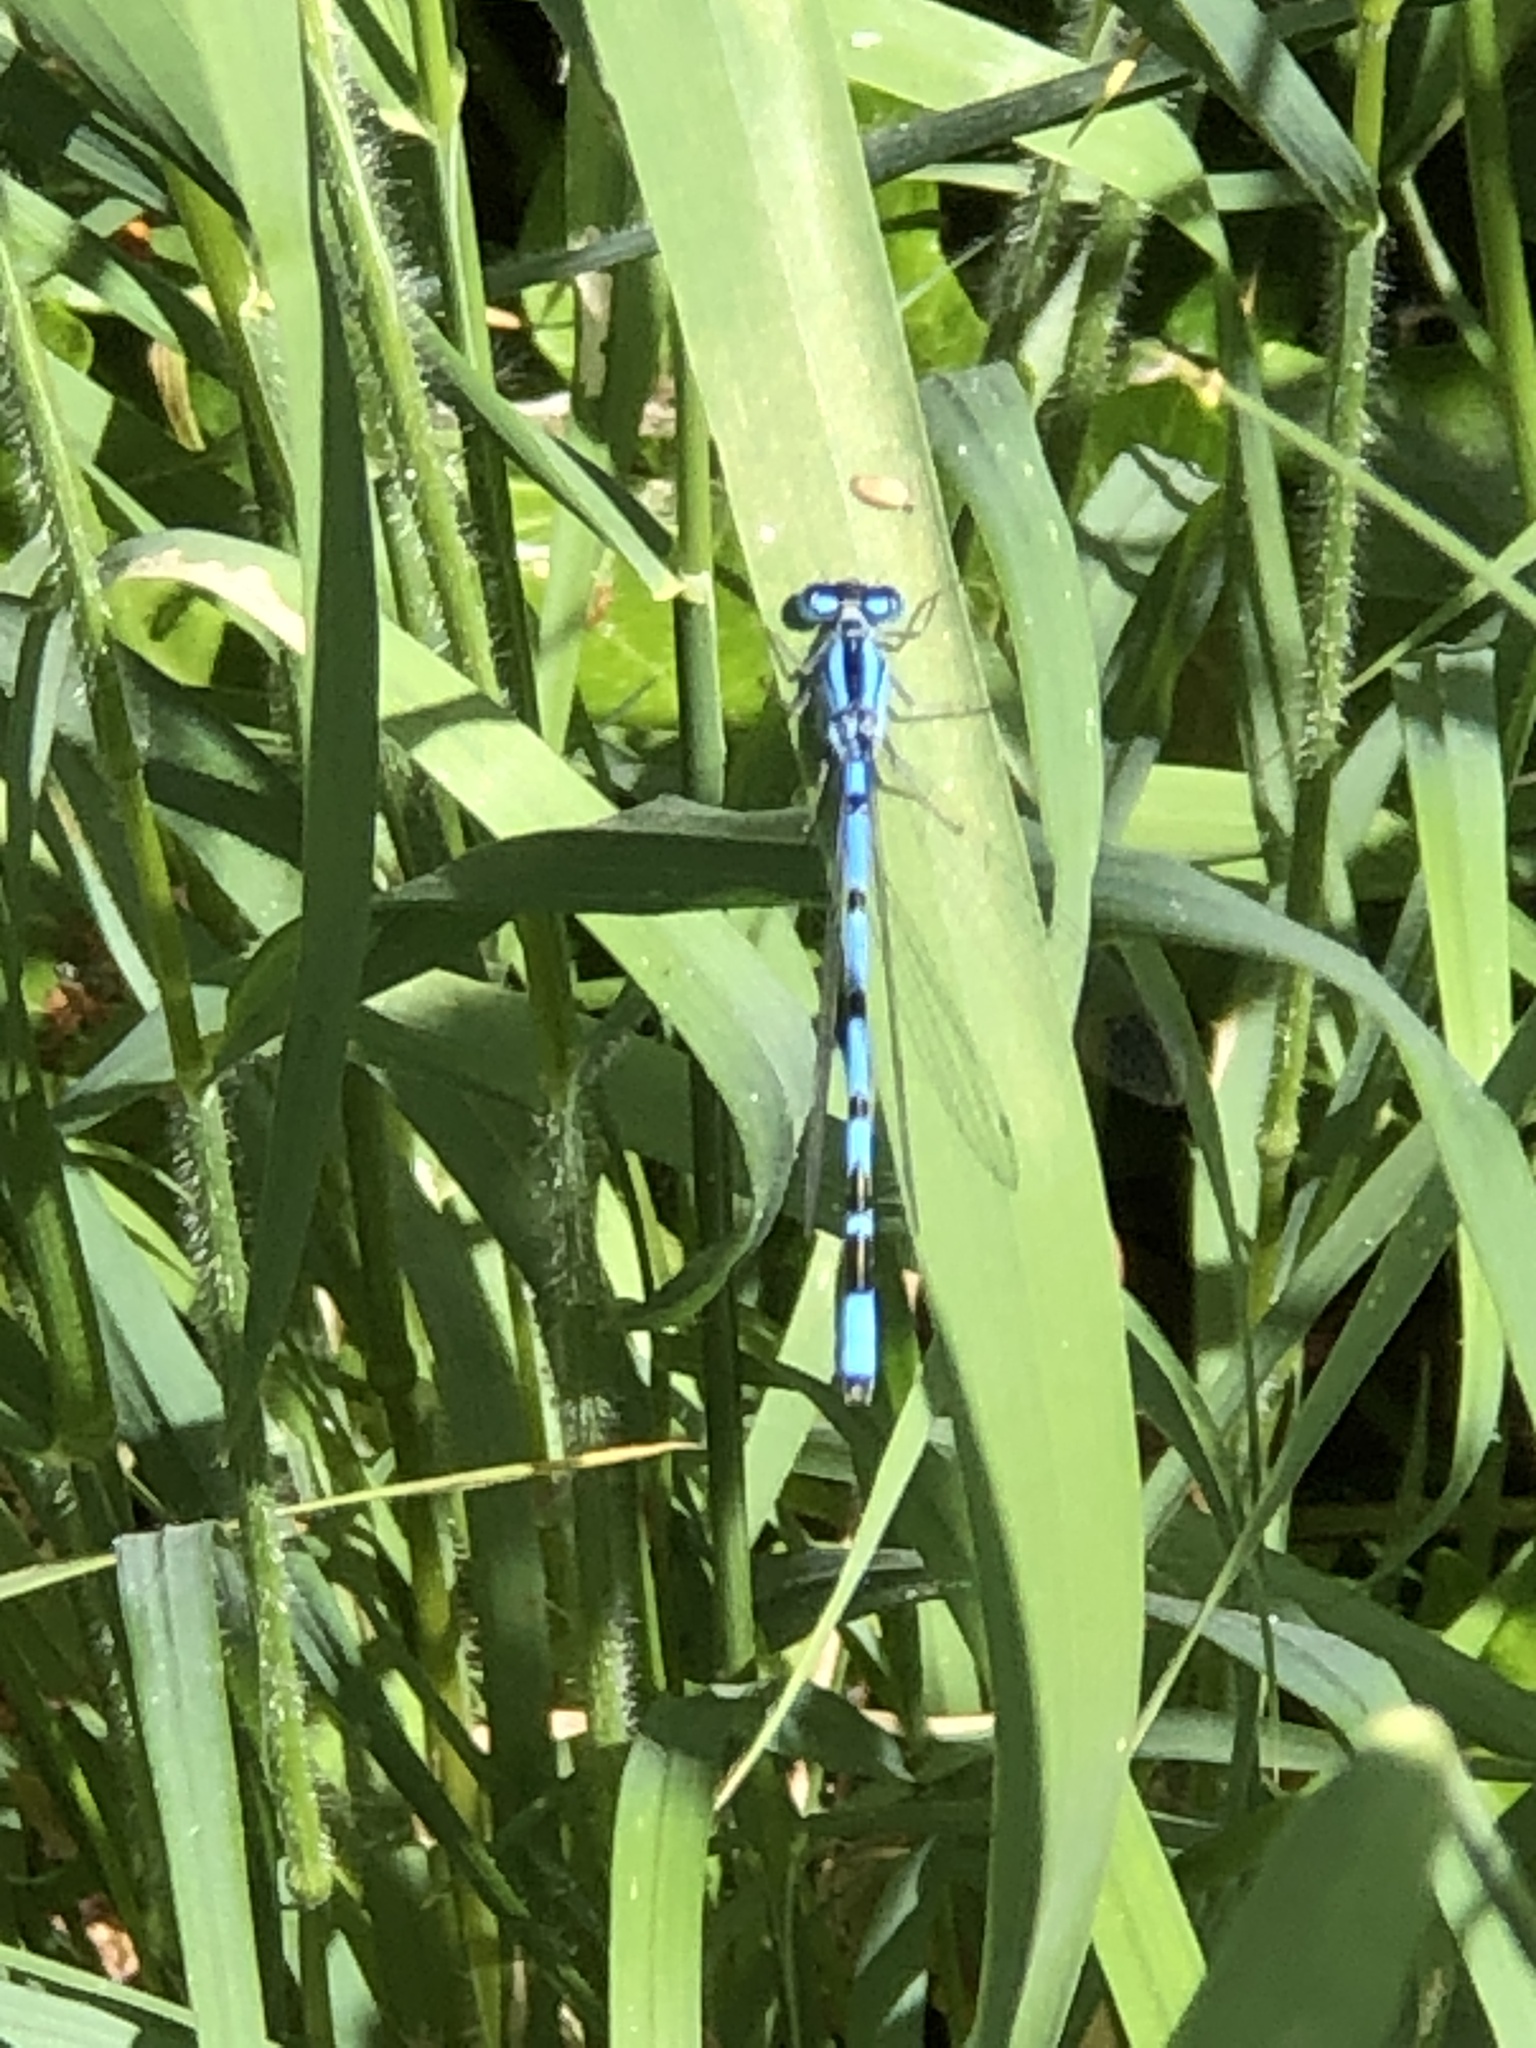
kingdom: Animalia
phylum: Arthropoda
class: Insecta
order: Odonata
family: Coenagrionidae
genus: Enallagma
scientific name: Enallagma cyathigerum
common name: Common blue damselfly
